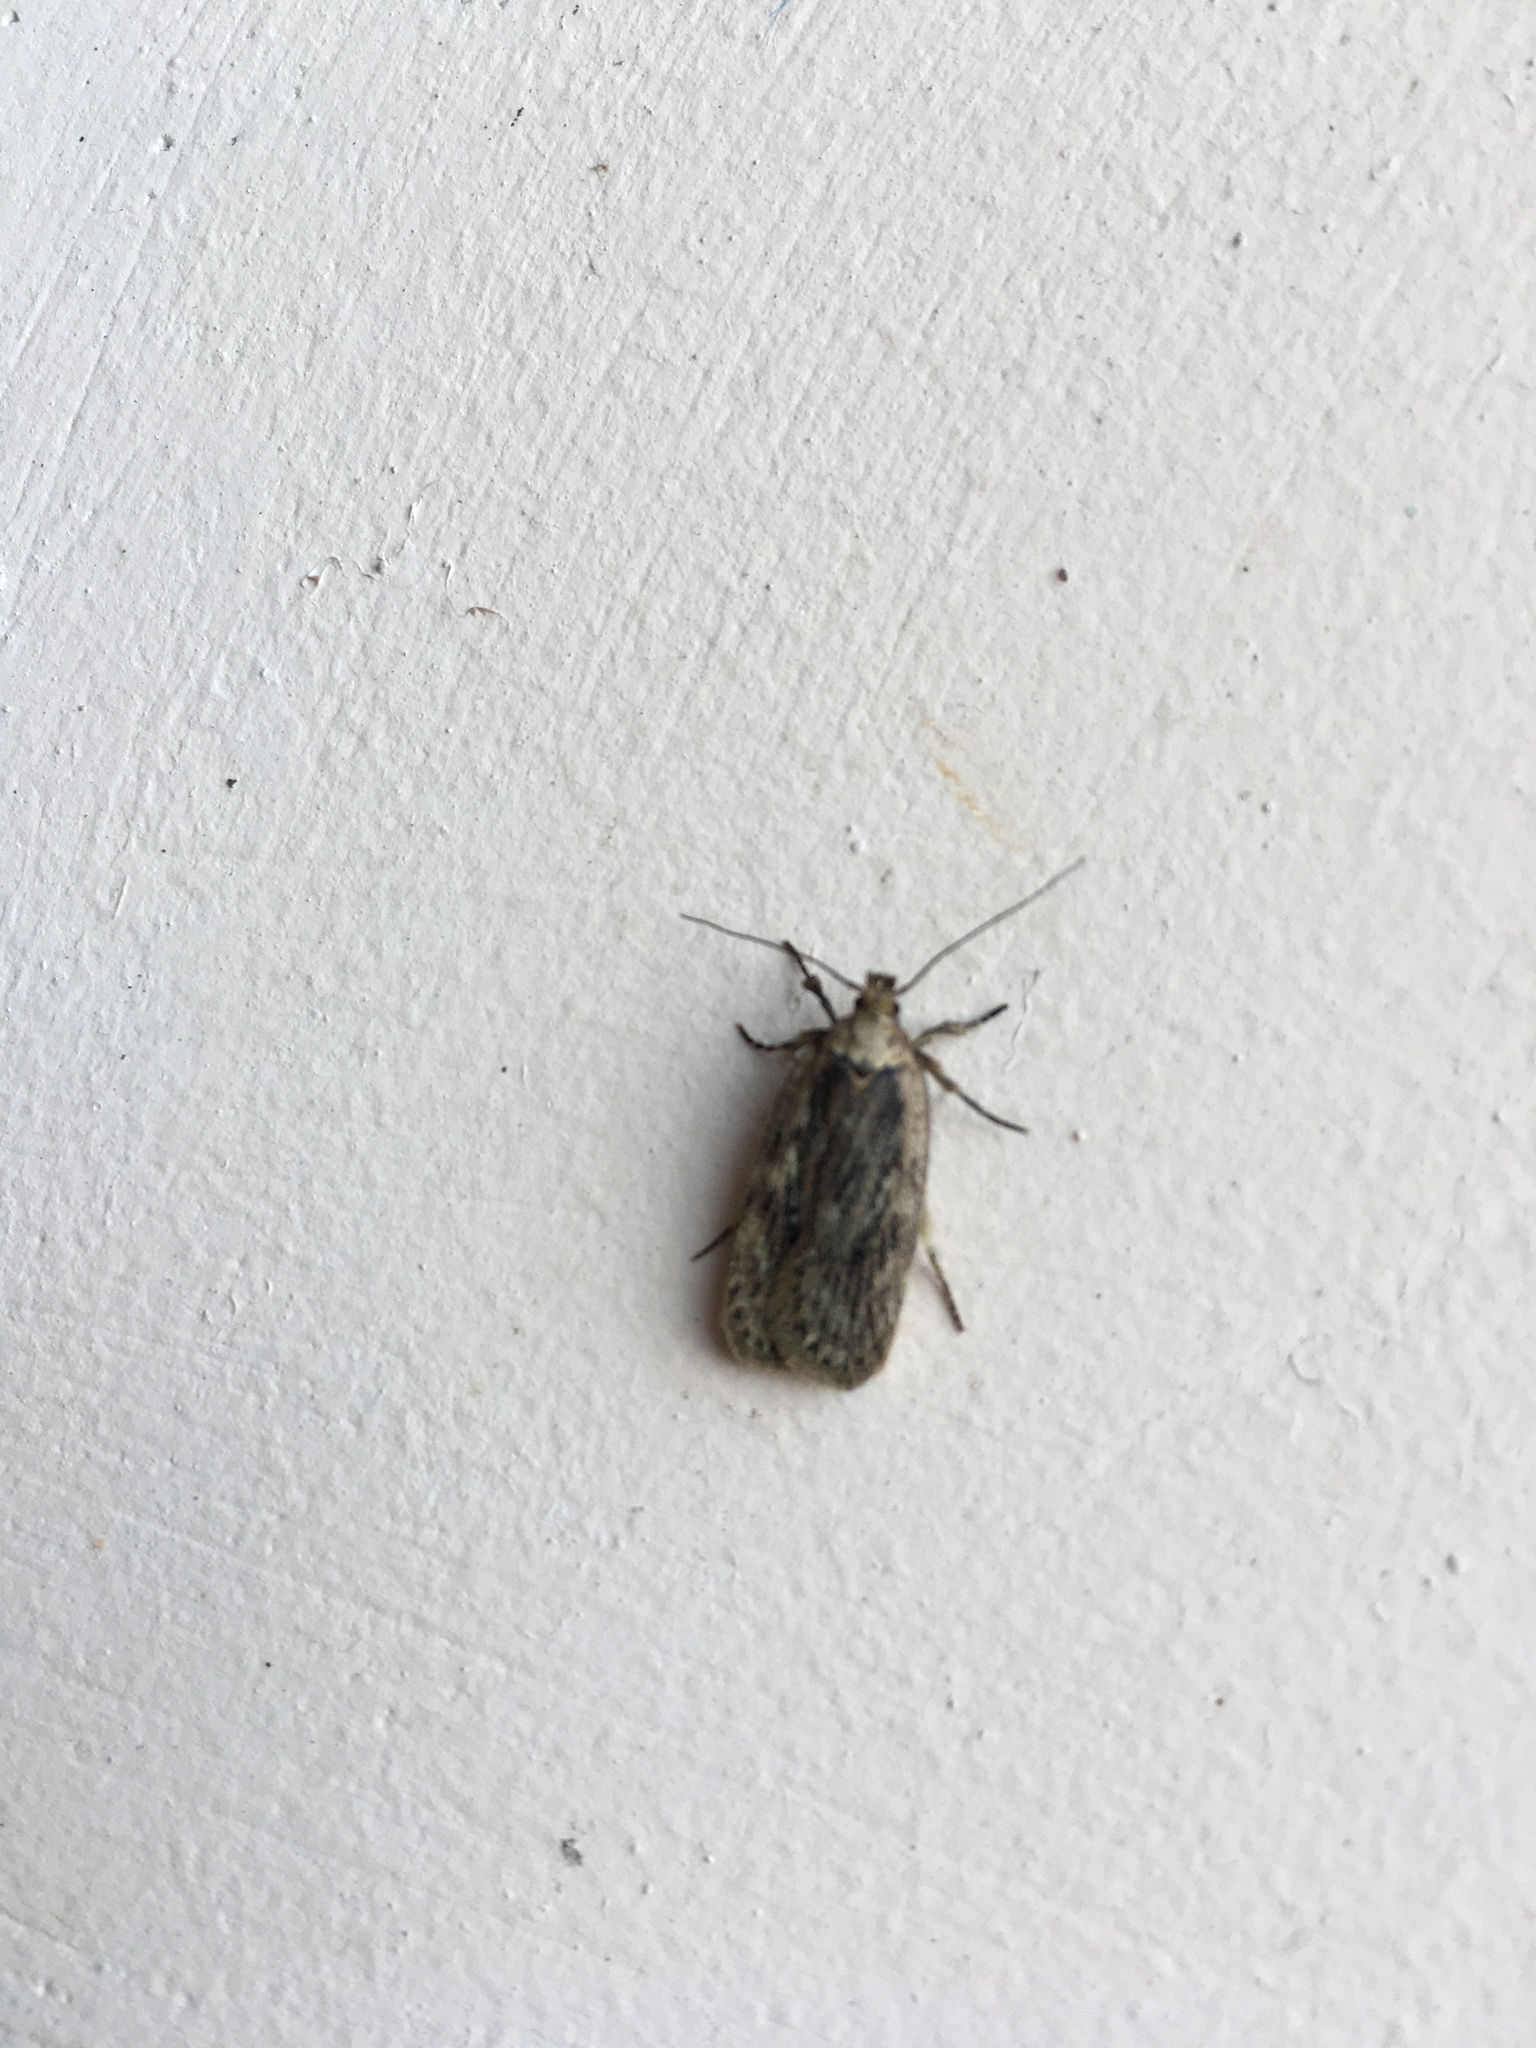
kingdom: Animalia
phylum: Arthropoda
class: Insecta
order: Lepidoptera
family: Depressariidae
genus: Depressaria
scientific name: Depressaria radiella
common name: Parsnip moth
